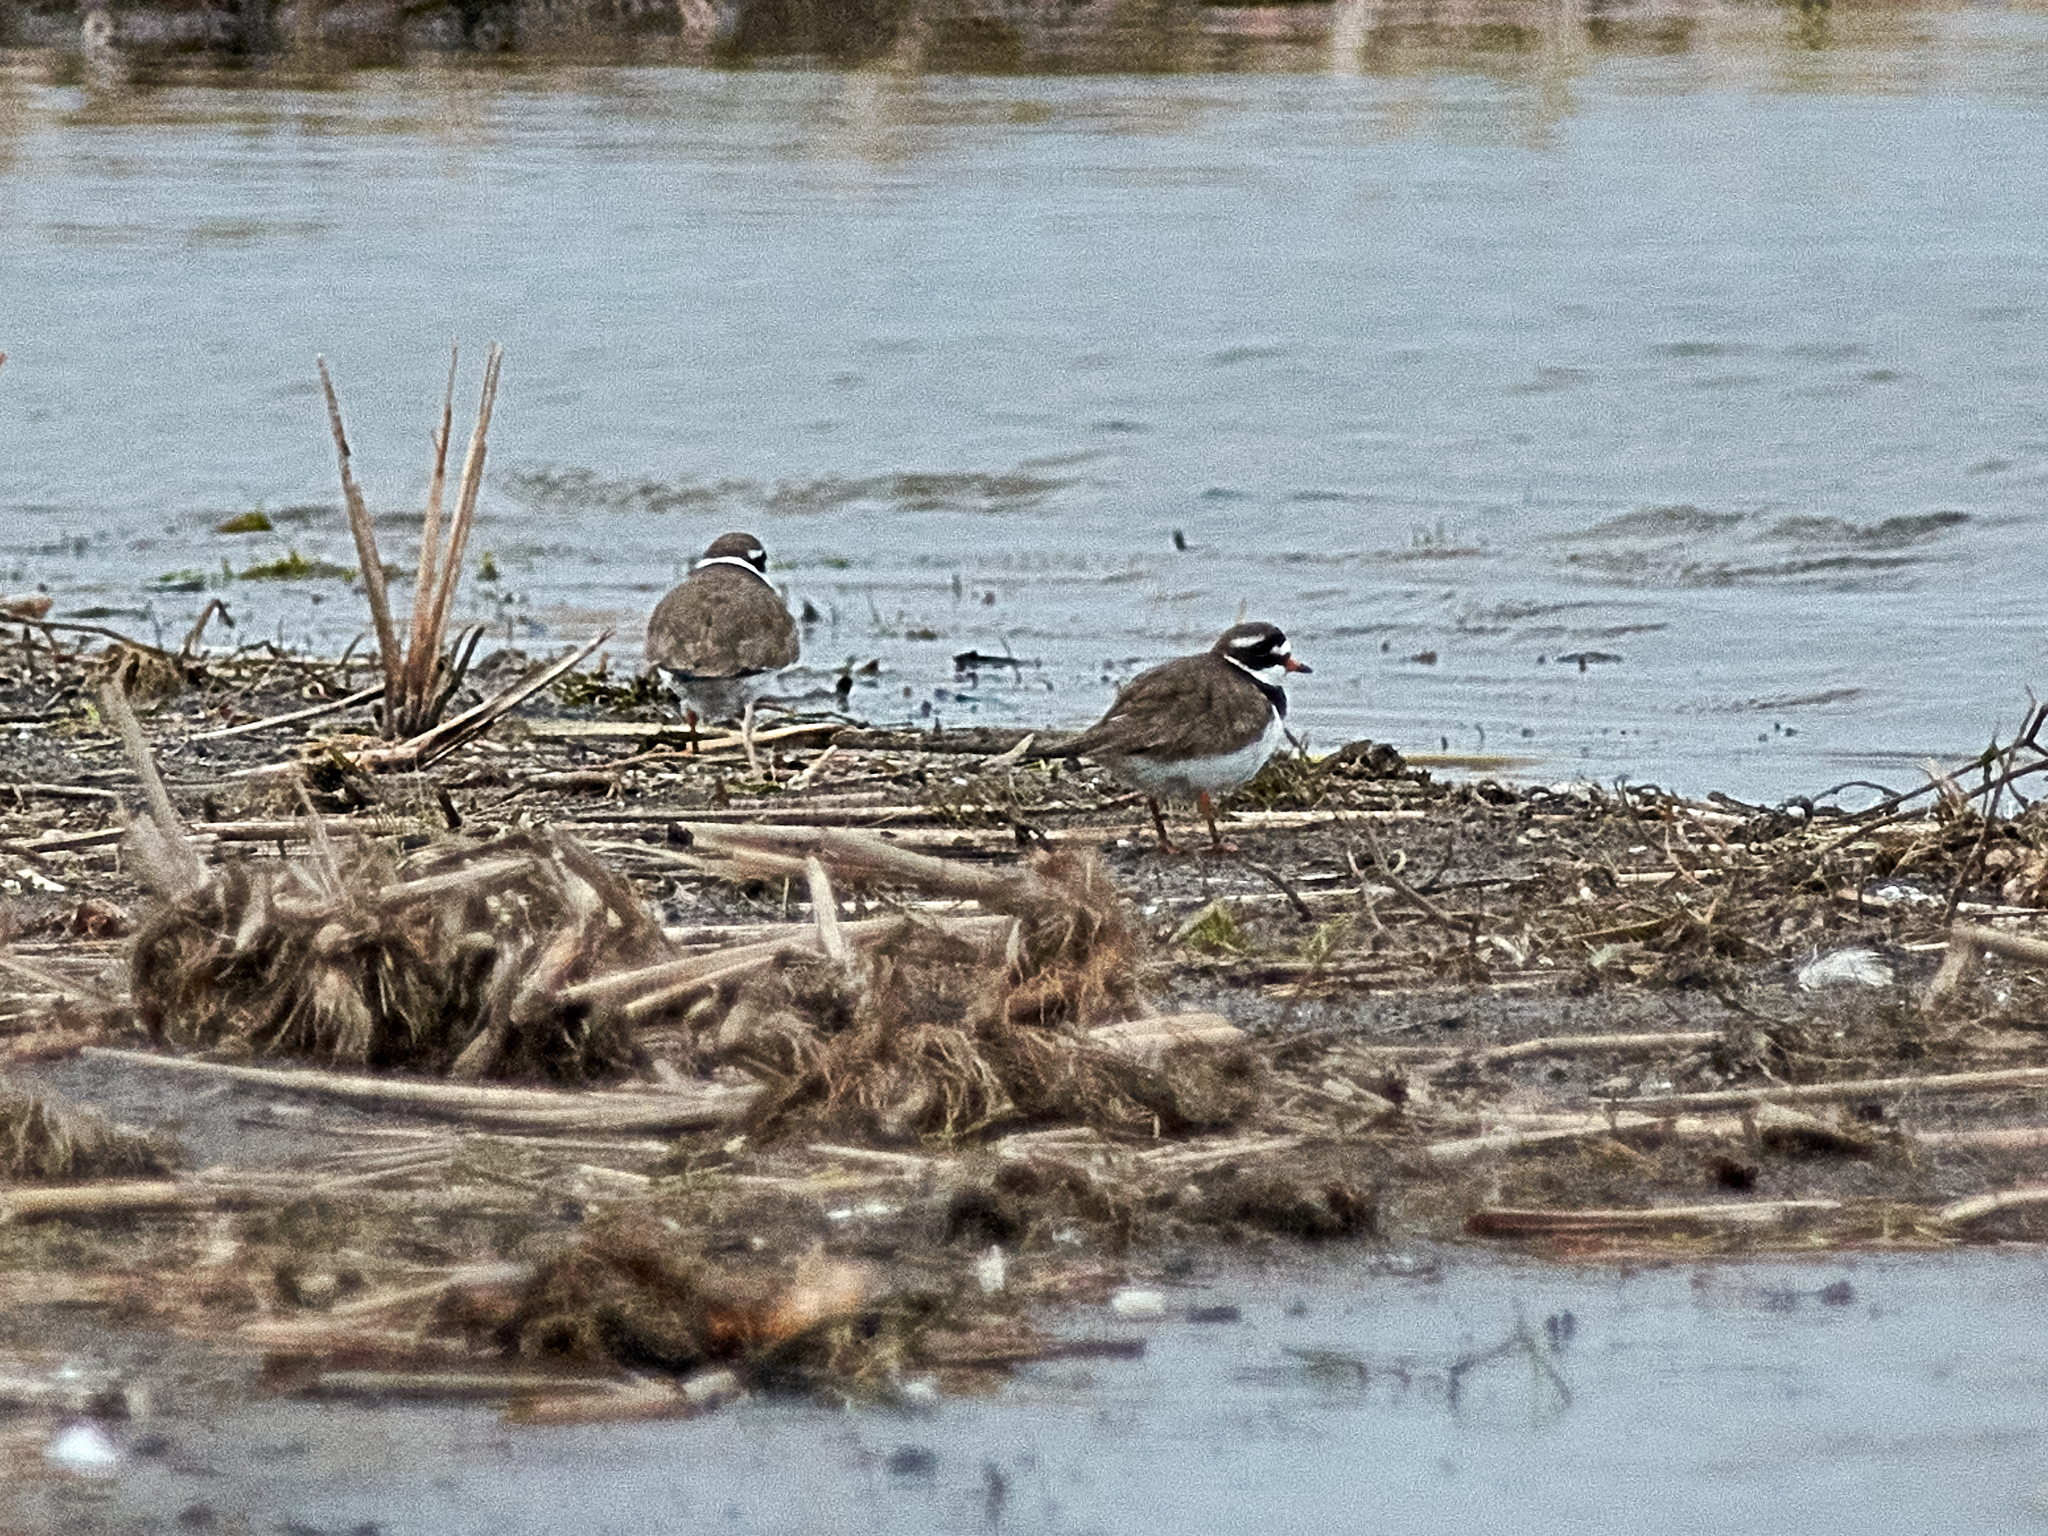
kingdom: Animalia
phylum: Chordata
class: Aves
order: Charadriiformes
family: Charadriidae
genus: Charadrius
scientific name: Charadrius hiaticula
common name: Common ringed plover
